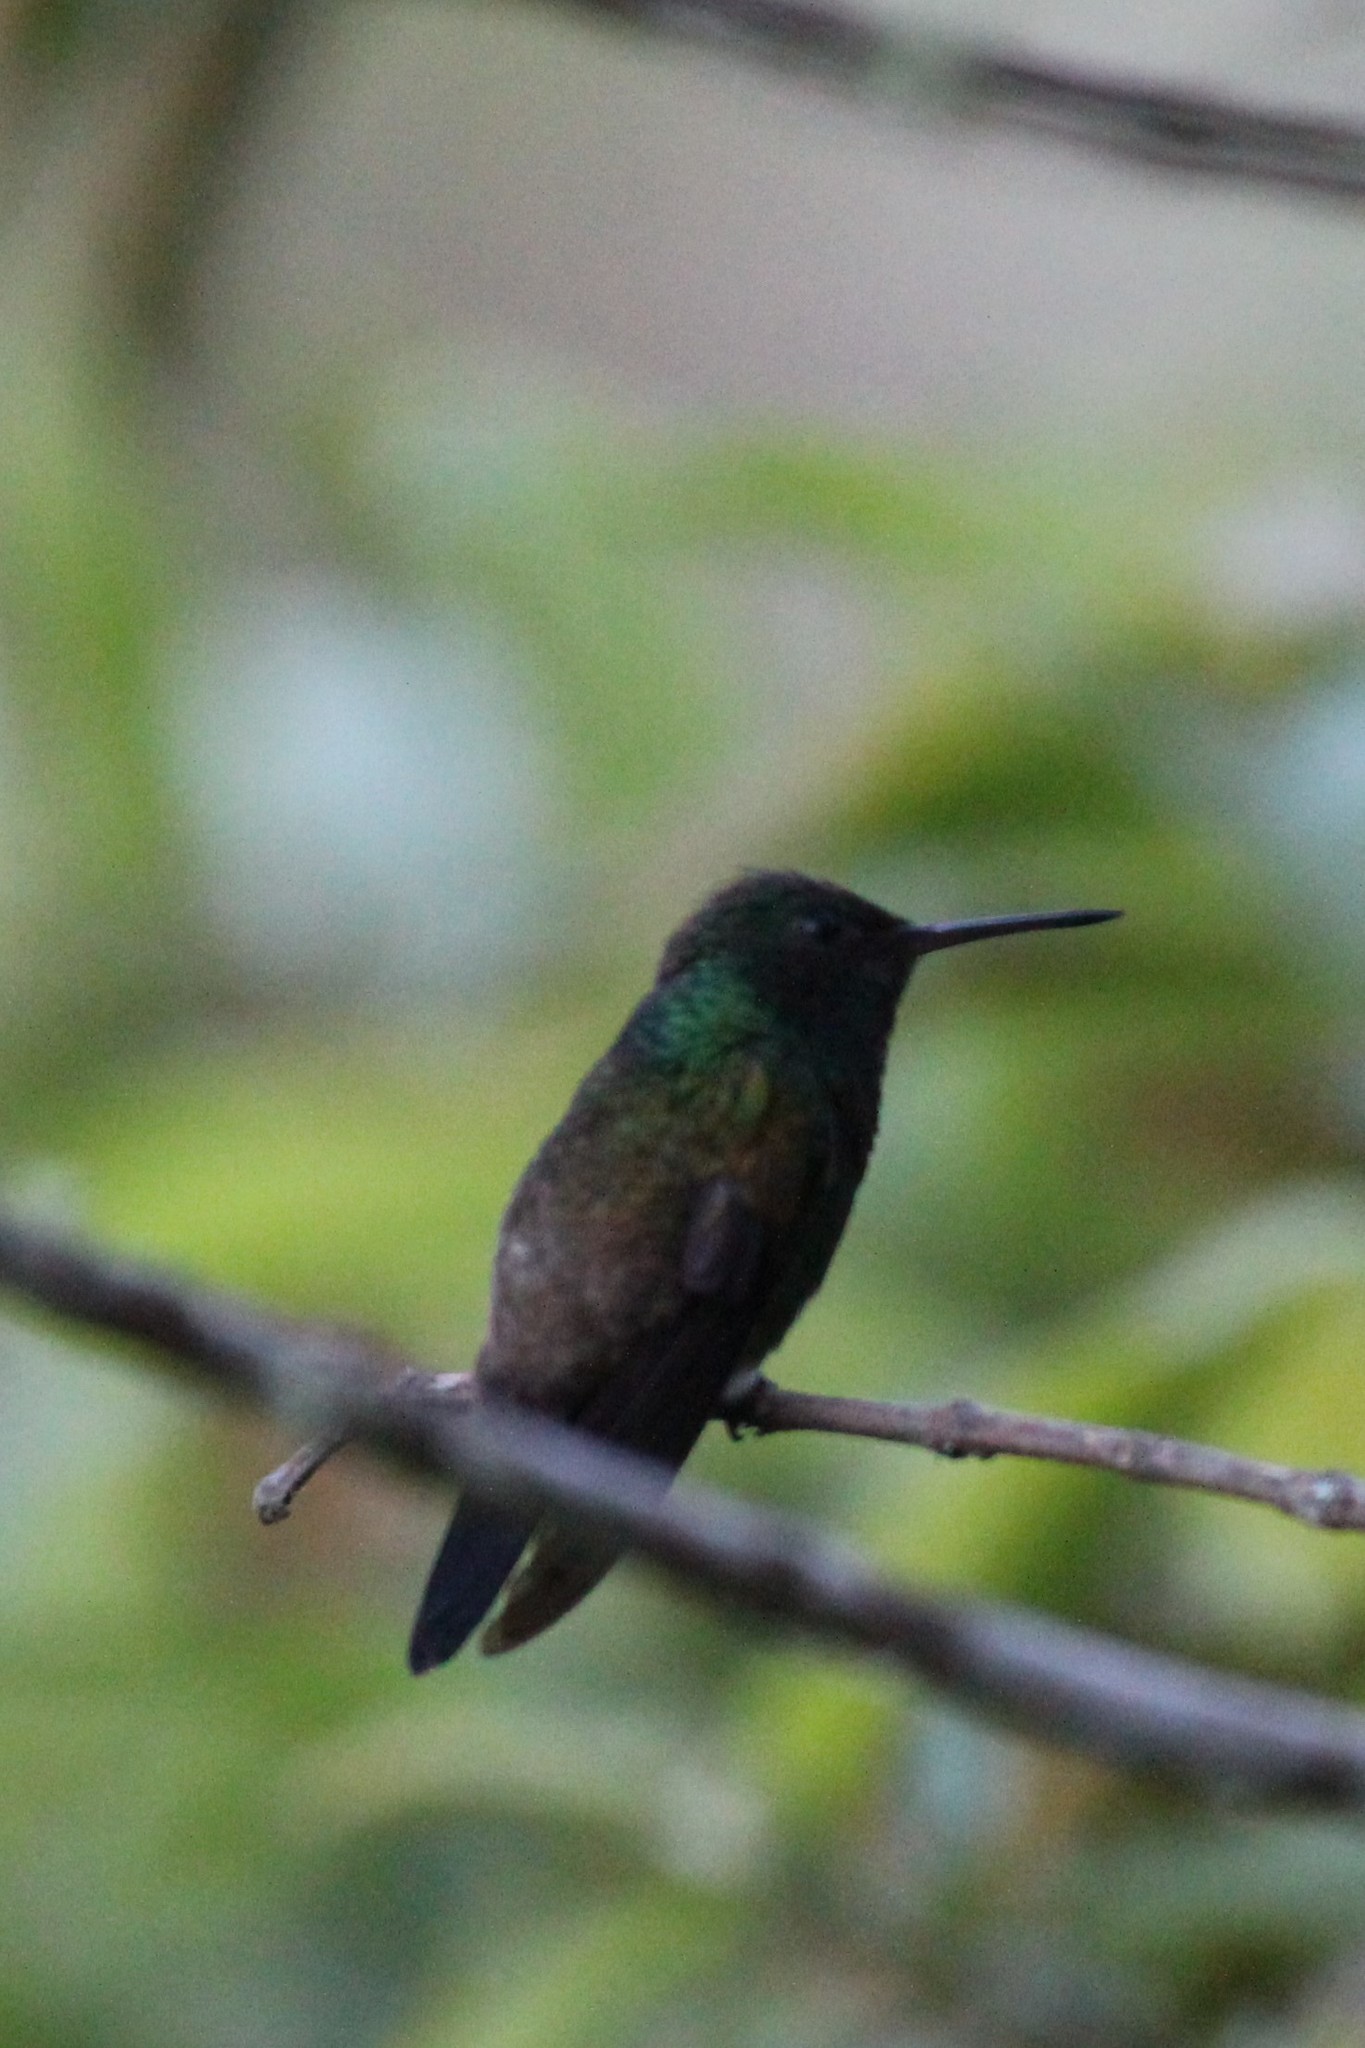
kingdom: Animalia
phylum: Chordata
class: Aves
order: Apodiformes
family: Trochilidae
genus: Saucerottia
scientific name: Saucerottia edward
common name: Snowy-bellied hummingbird
